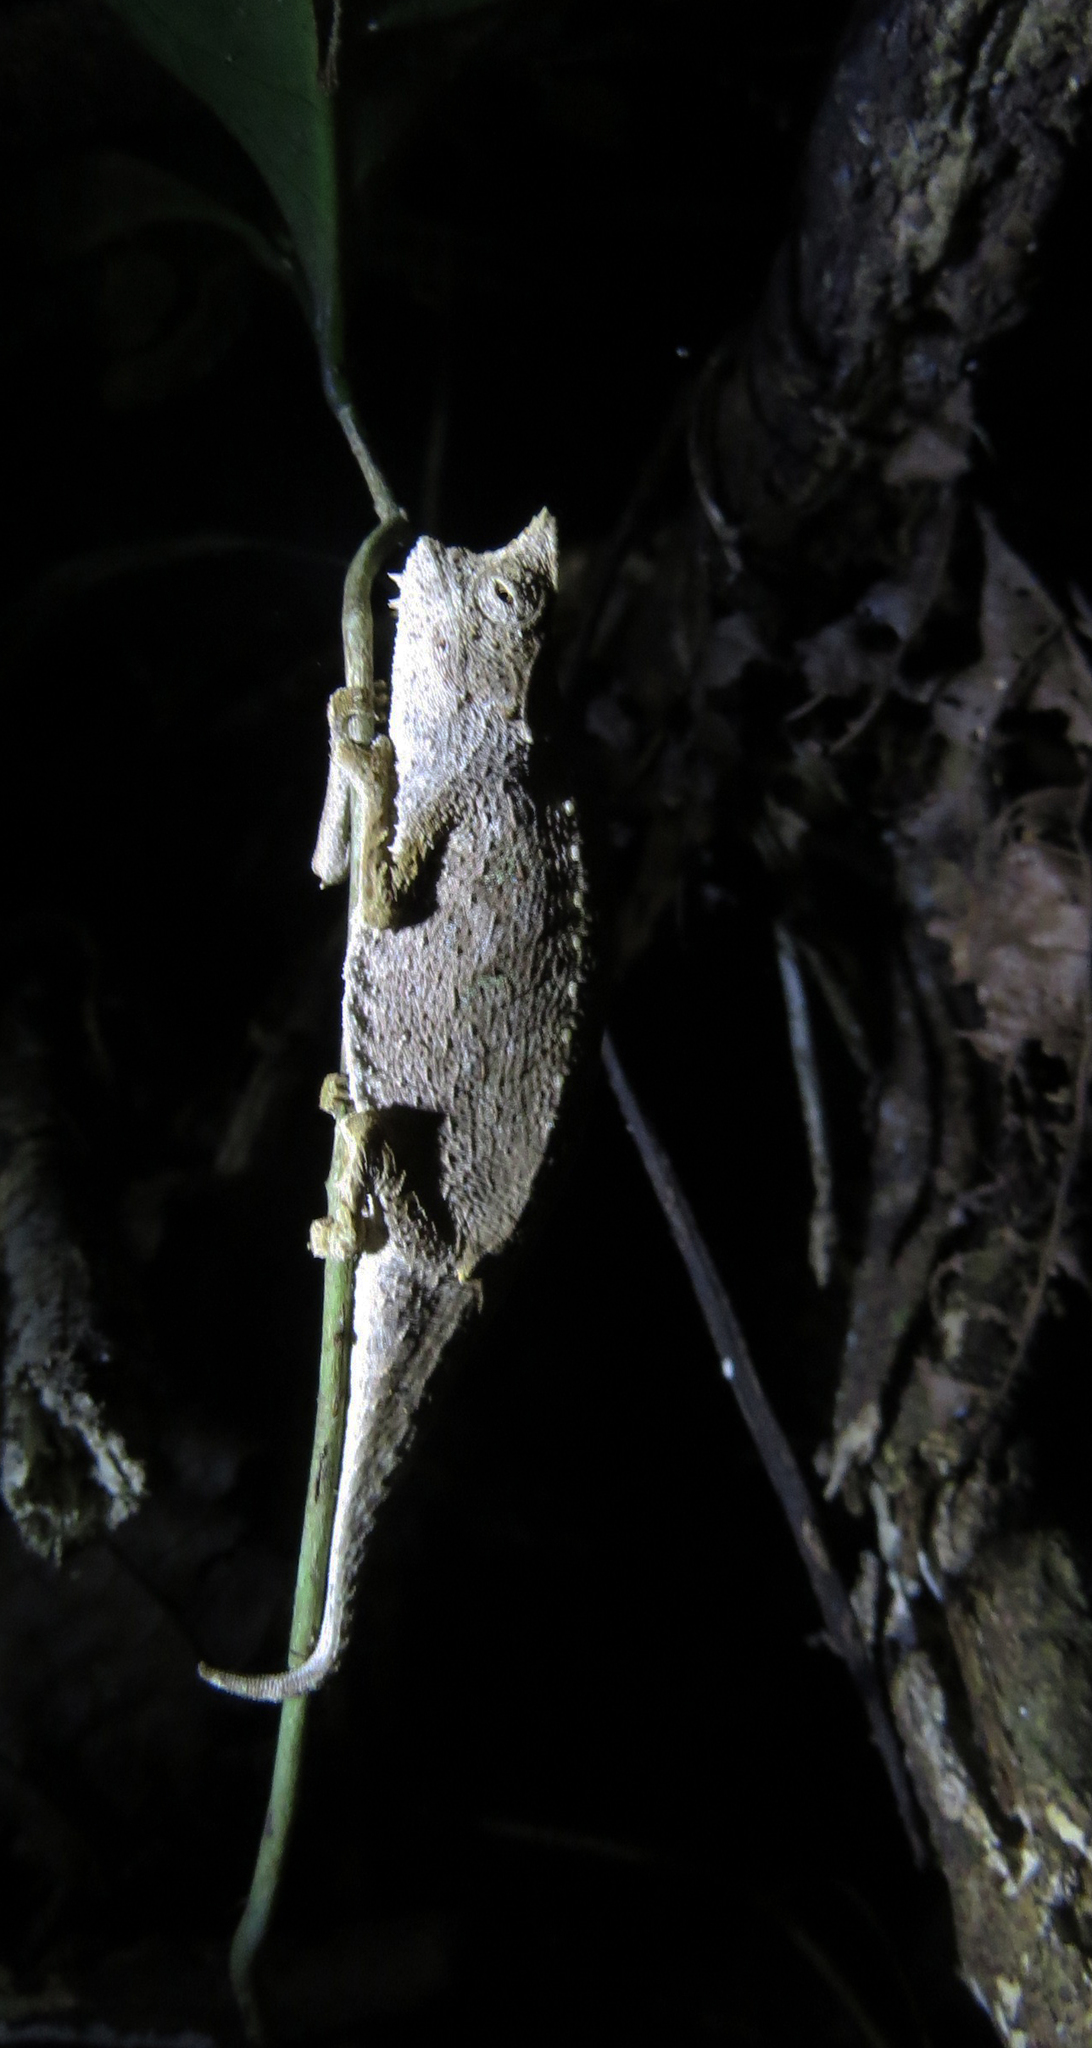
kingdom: Animalia
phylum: Chordata
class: Squamata
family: Chamaeleonidae
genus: Brookesia
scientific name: Brookesia superciliaris
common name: Brown leaf chameleon
